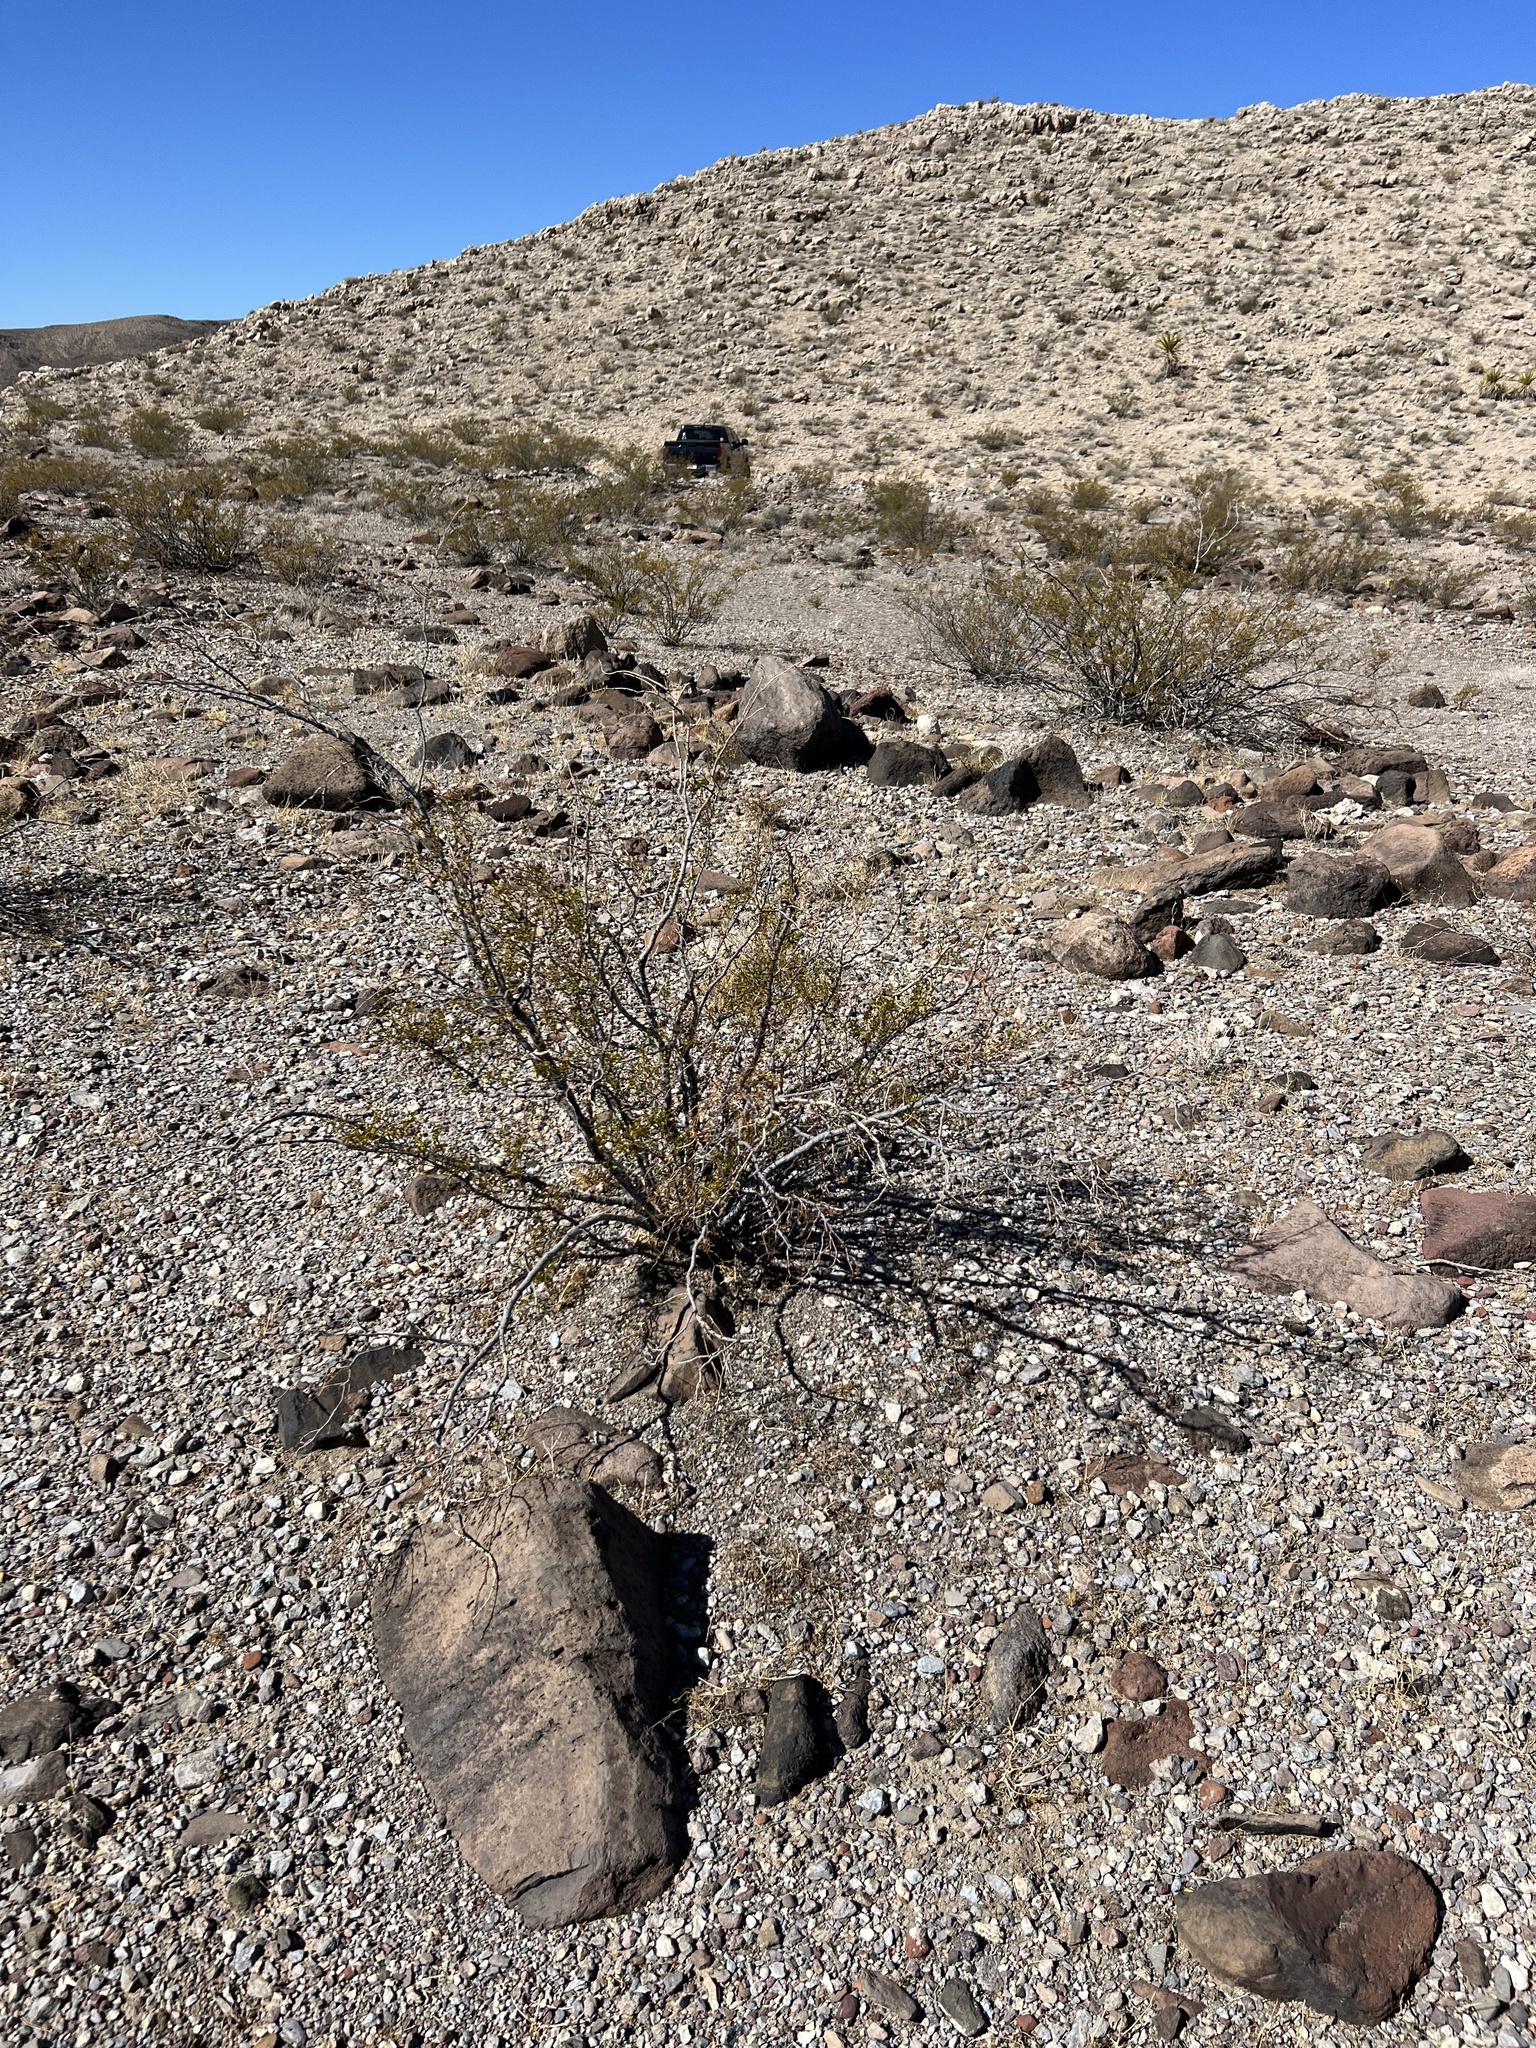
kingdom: Plantae
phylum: Tracheophyta
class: Magnoliopsida
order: Zygophyllales
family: Zygophyllaceae
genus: Larrea
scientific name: Larrea tridentata
